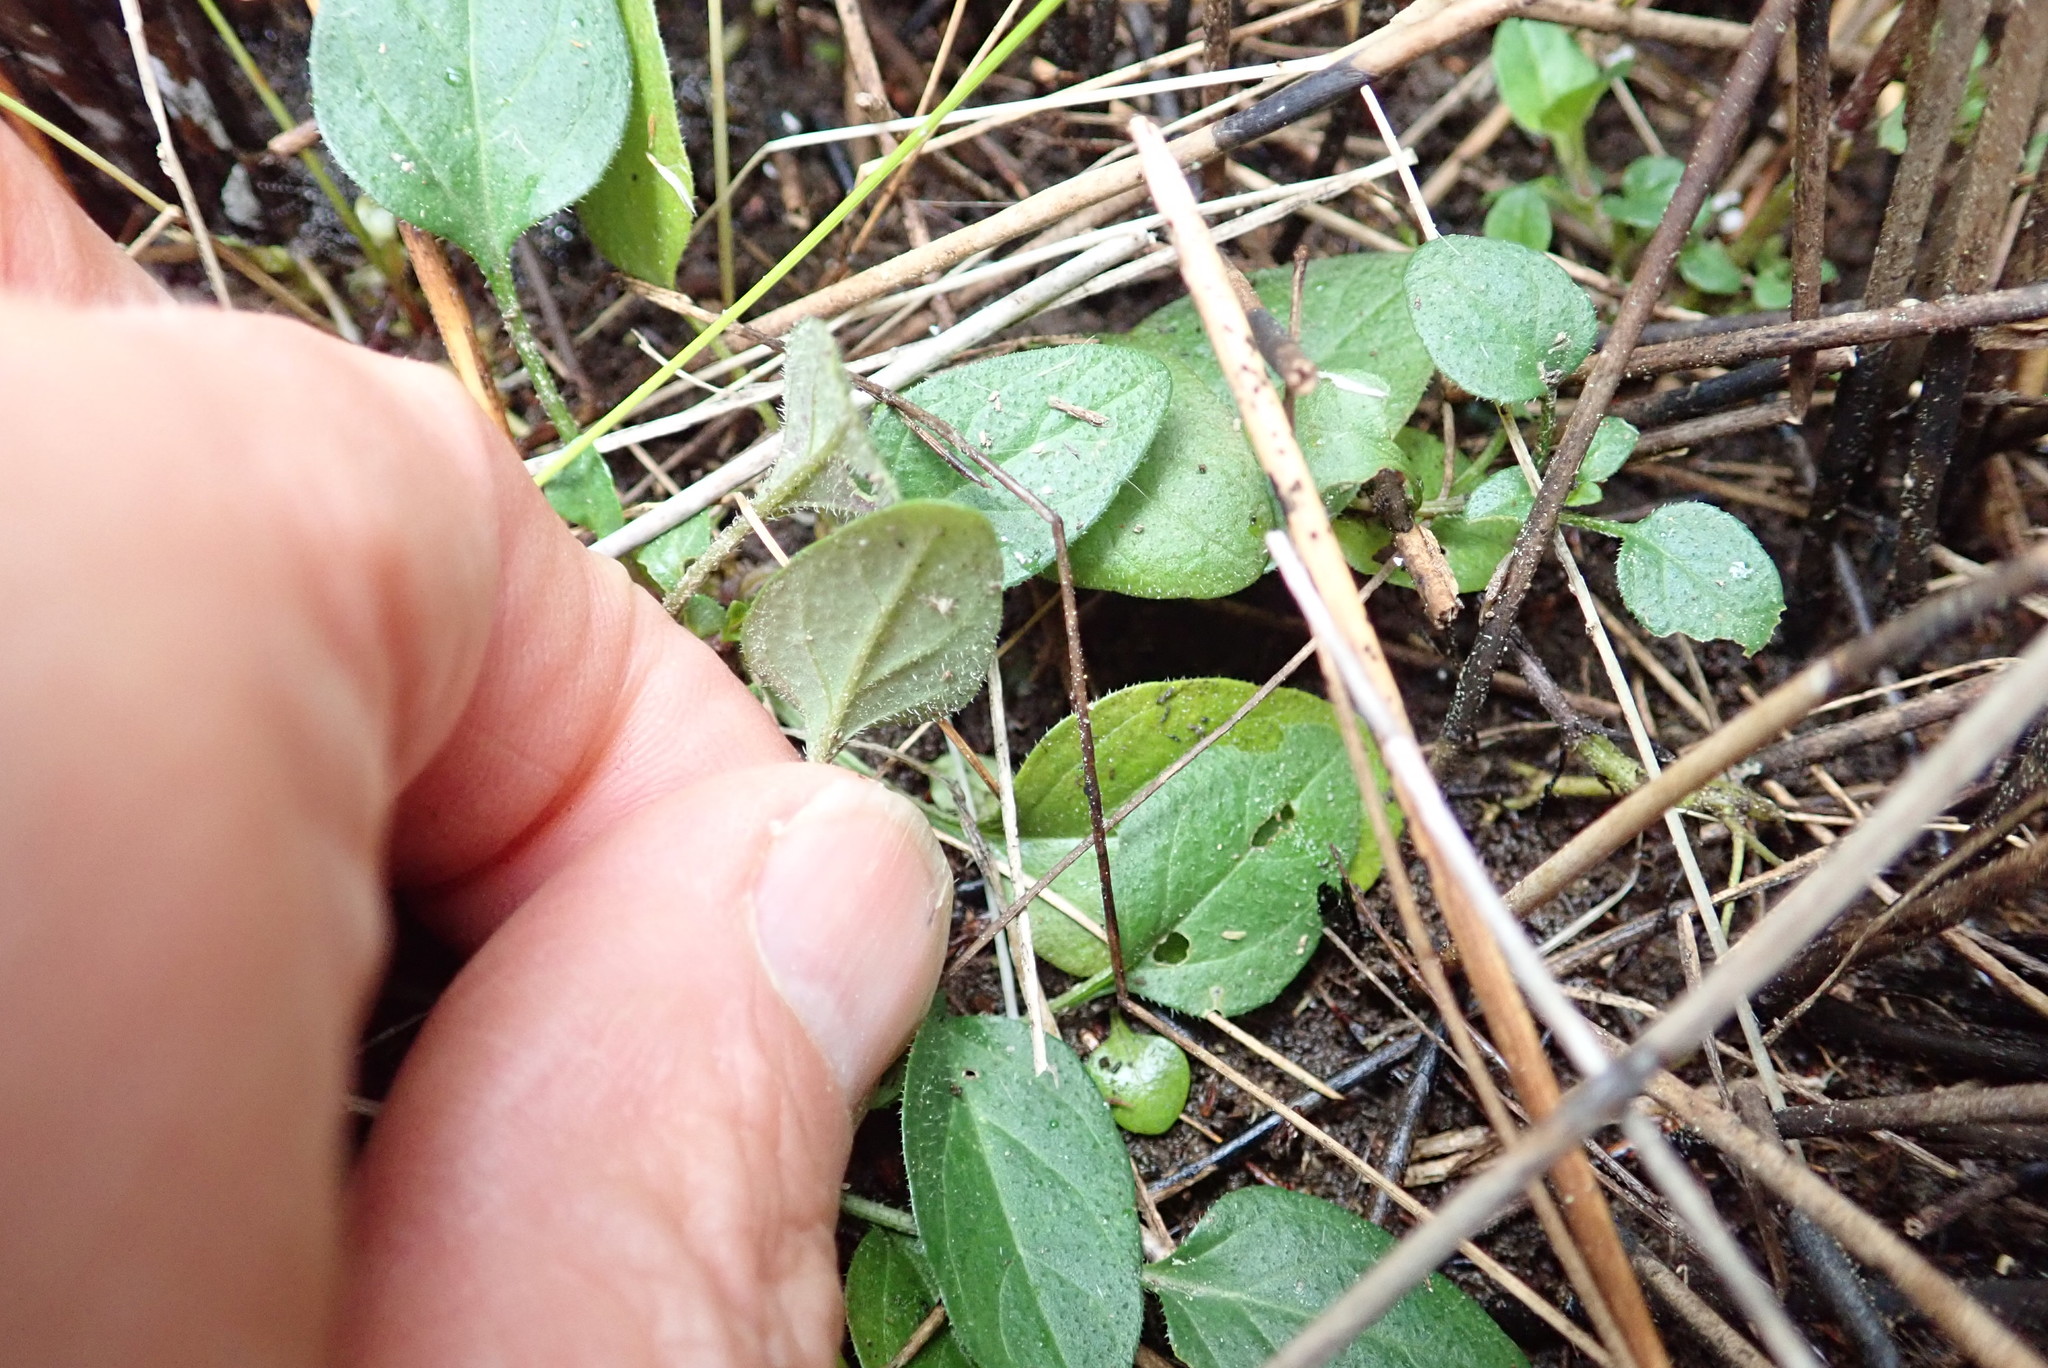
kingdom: Plantae
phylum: Tracheophyta
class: Magnoliopsida
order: Lamiales
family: Lamiaceae
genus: Prunella
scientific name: Prunella vulgaris
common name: Heal-all
